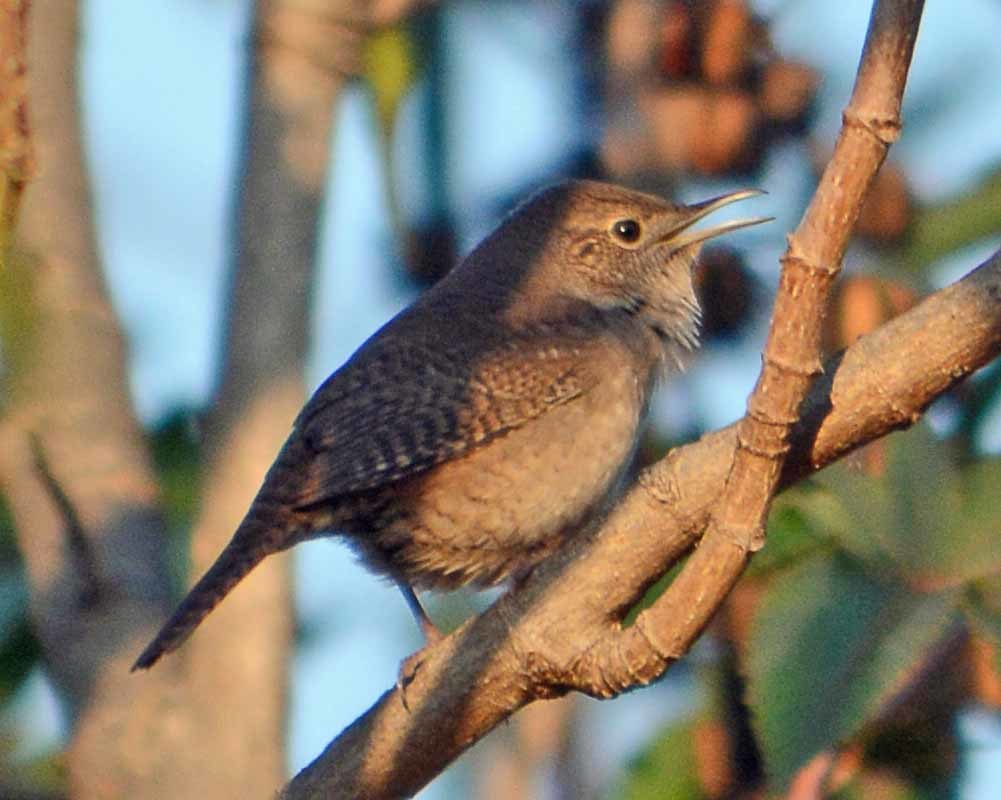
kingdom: Animalia
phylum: Chordata
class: Aves
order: Passeriformes
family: Troglodytidae
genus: Troglodytes
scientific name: Troglodytes aedon
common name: House wren
